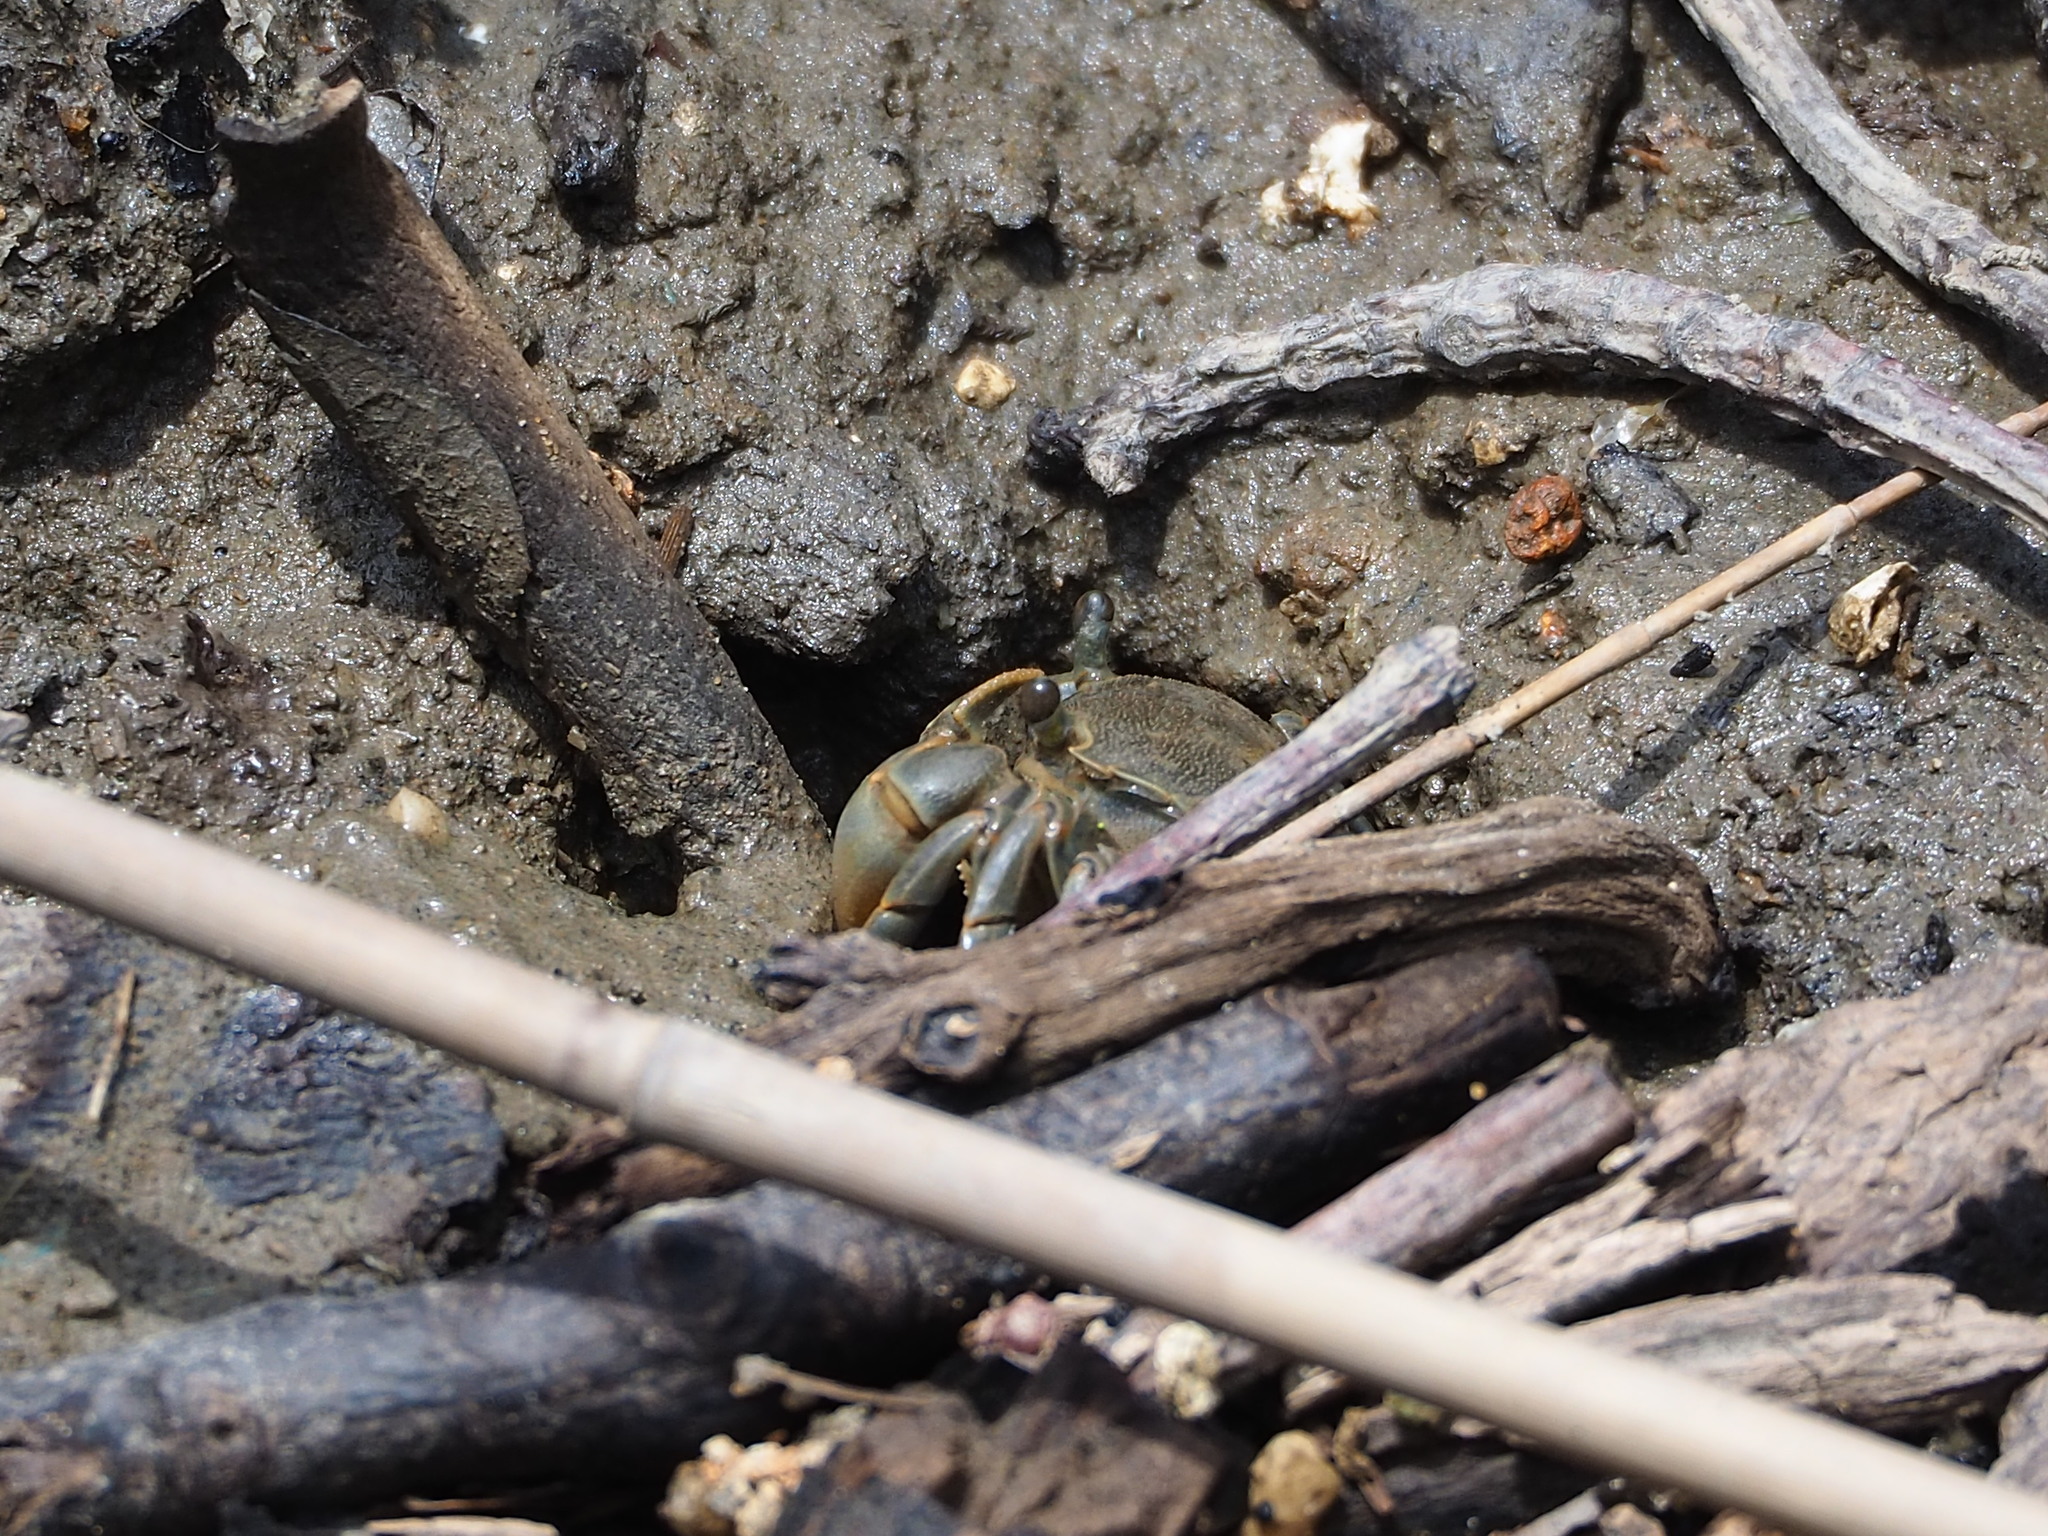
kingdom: Animalia
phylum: Arthropoda
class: Malacostraca
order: Decapoda
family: Varunidae
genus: Helice
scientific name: Helice formosensis
